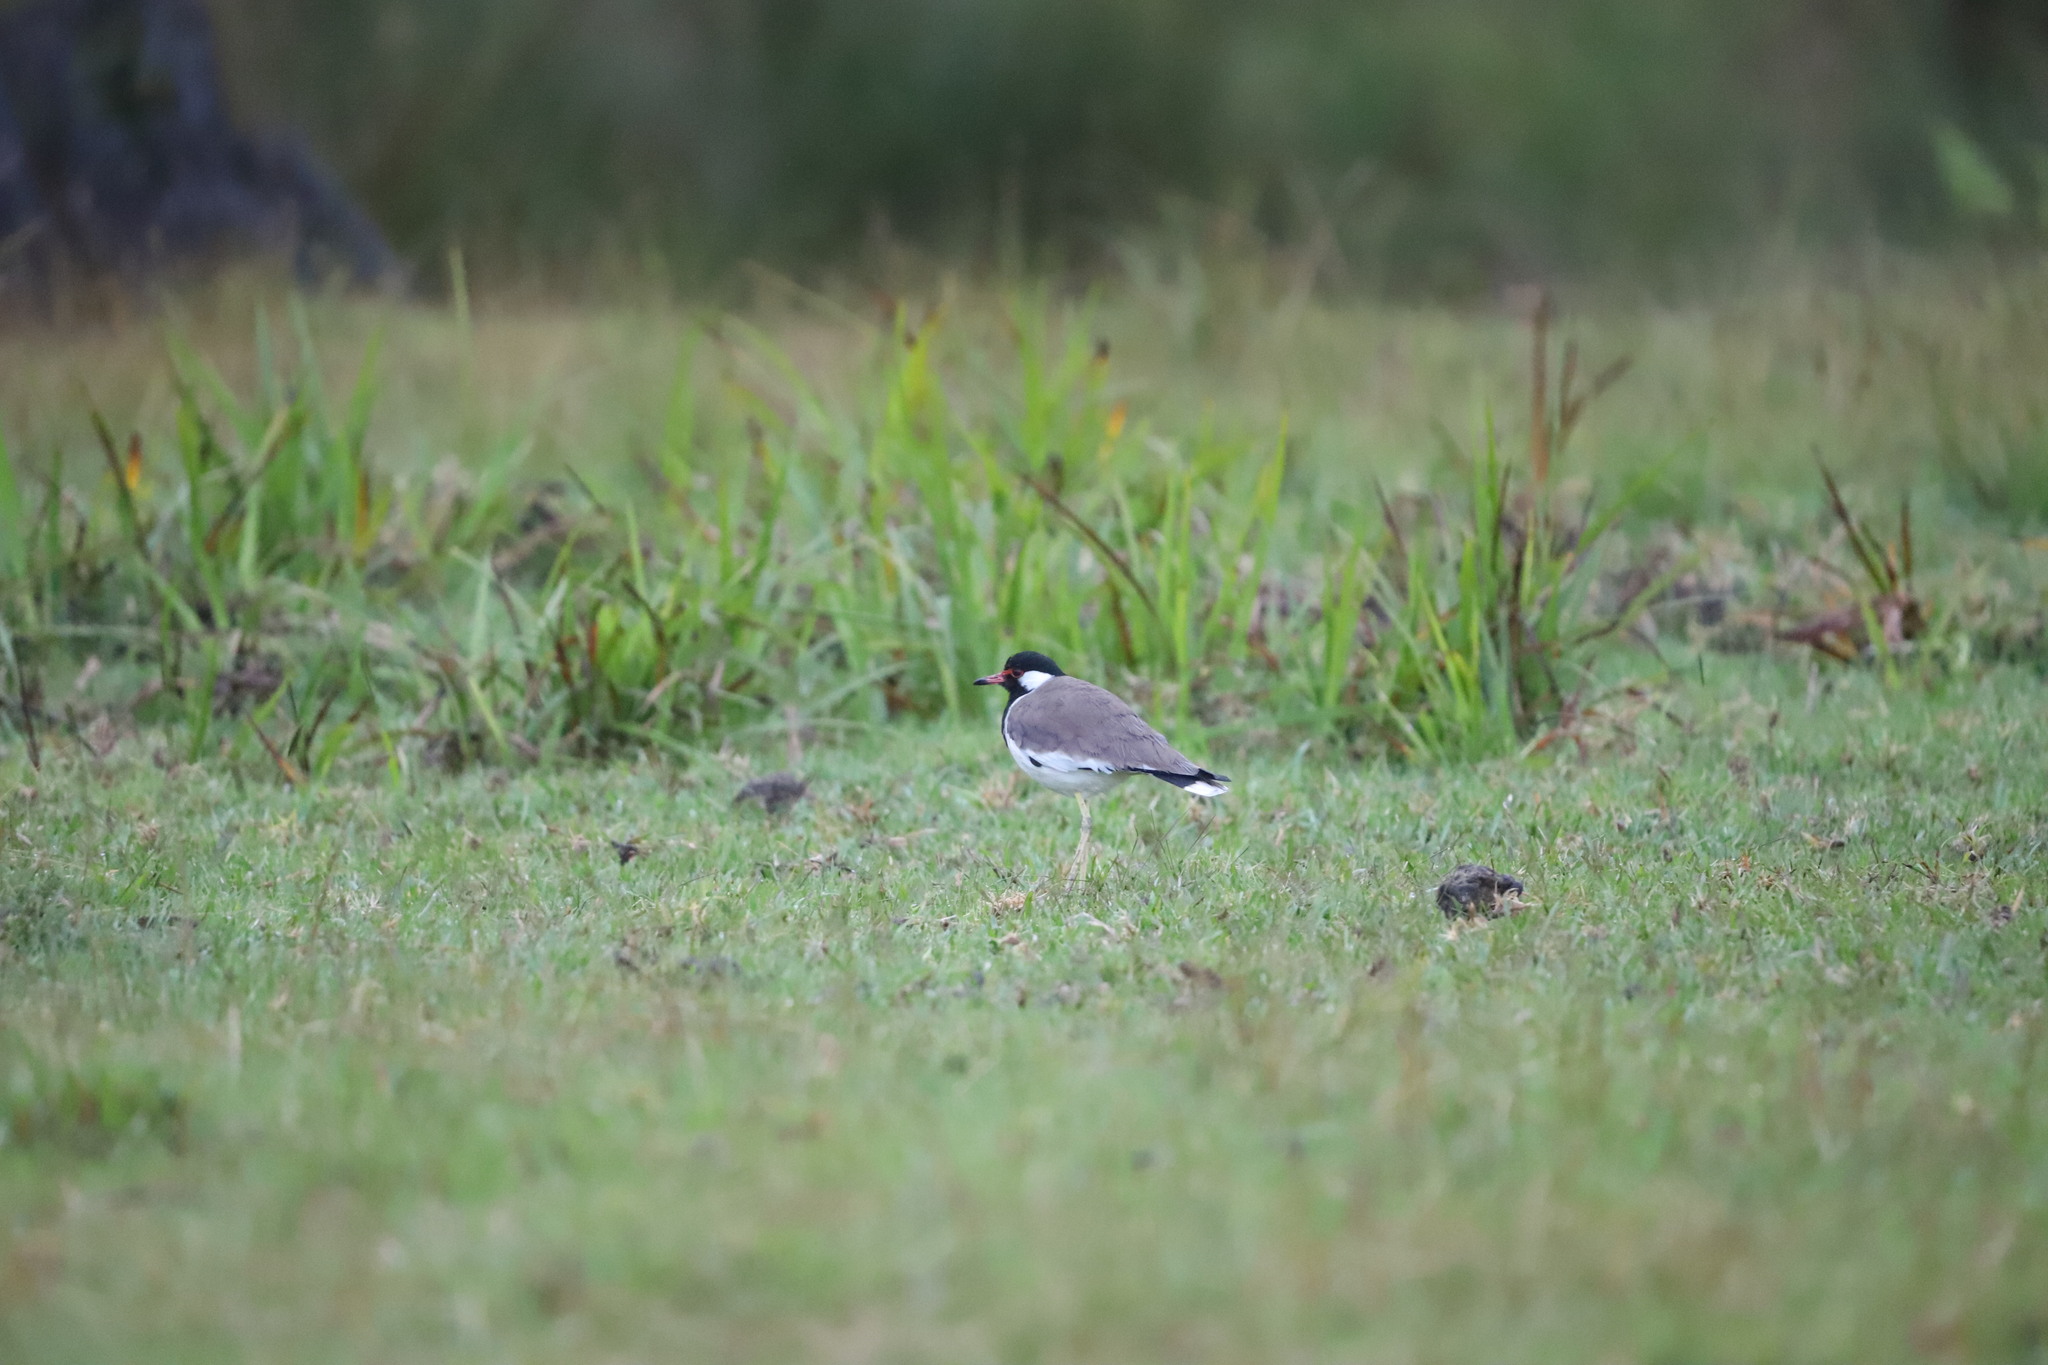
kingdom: Animalia
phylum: Chordata
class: Aves
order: Charadriiformes
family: Charadriidae
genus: Vanellus
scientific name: Vanellus indicus
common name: Red-wattled lapwing
